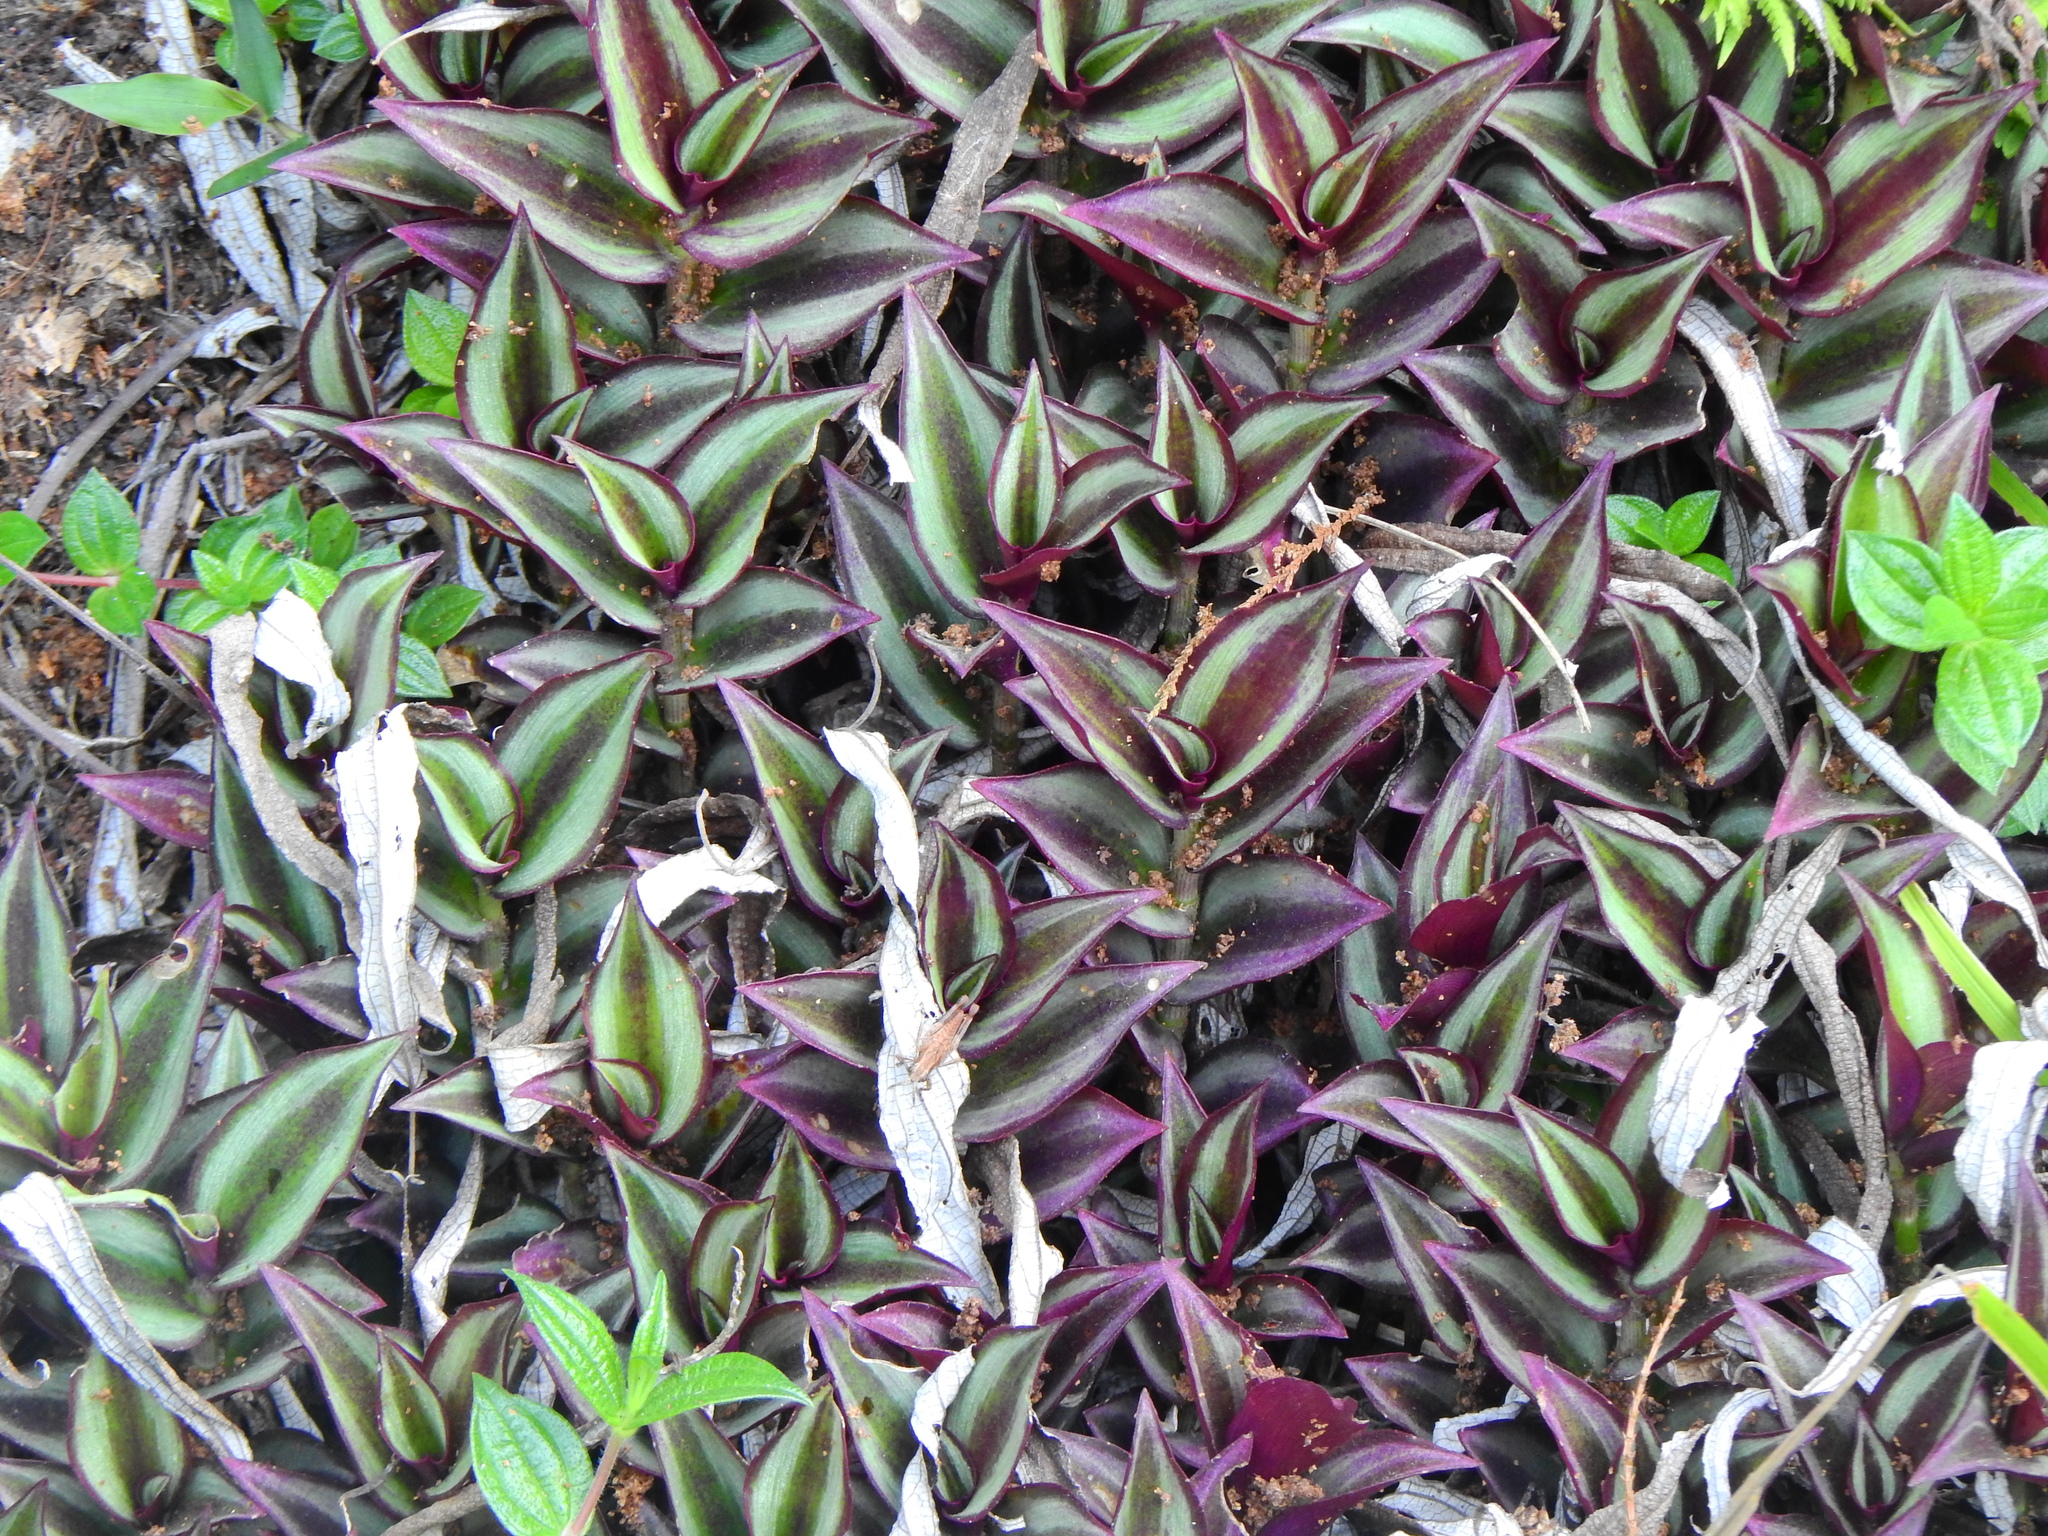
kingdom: Plantae
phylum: Tracheophyta
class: Liliopsida
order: Commelinales
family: Commelinaceae
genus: Tradescantia
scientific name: Tradescantia zebrina
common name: Inchplant
